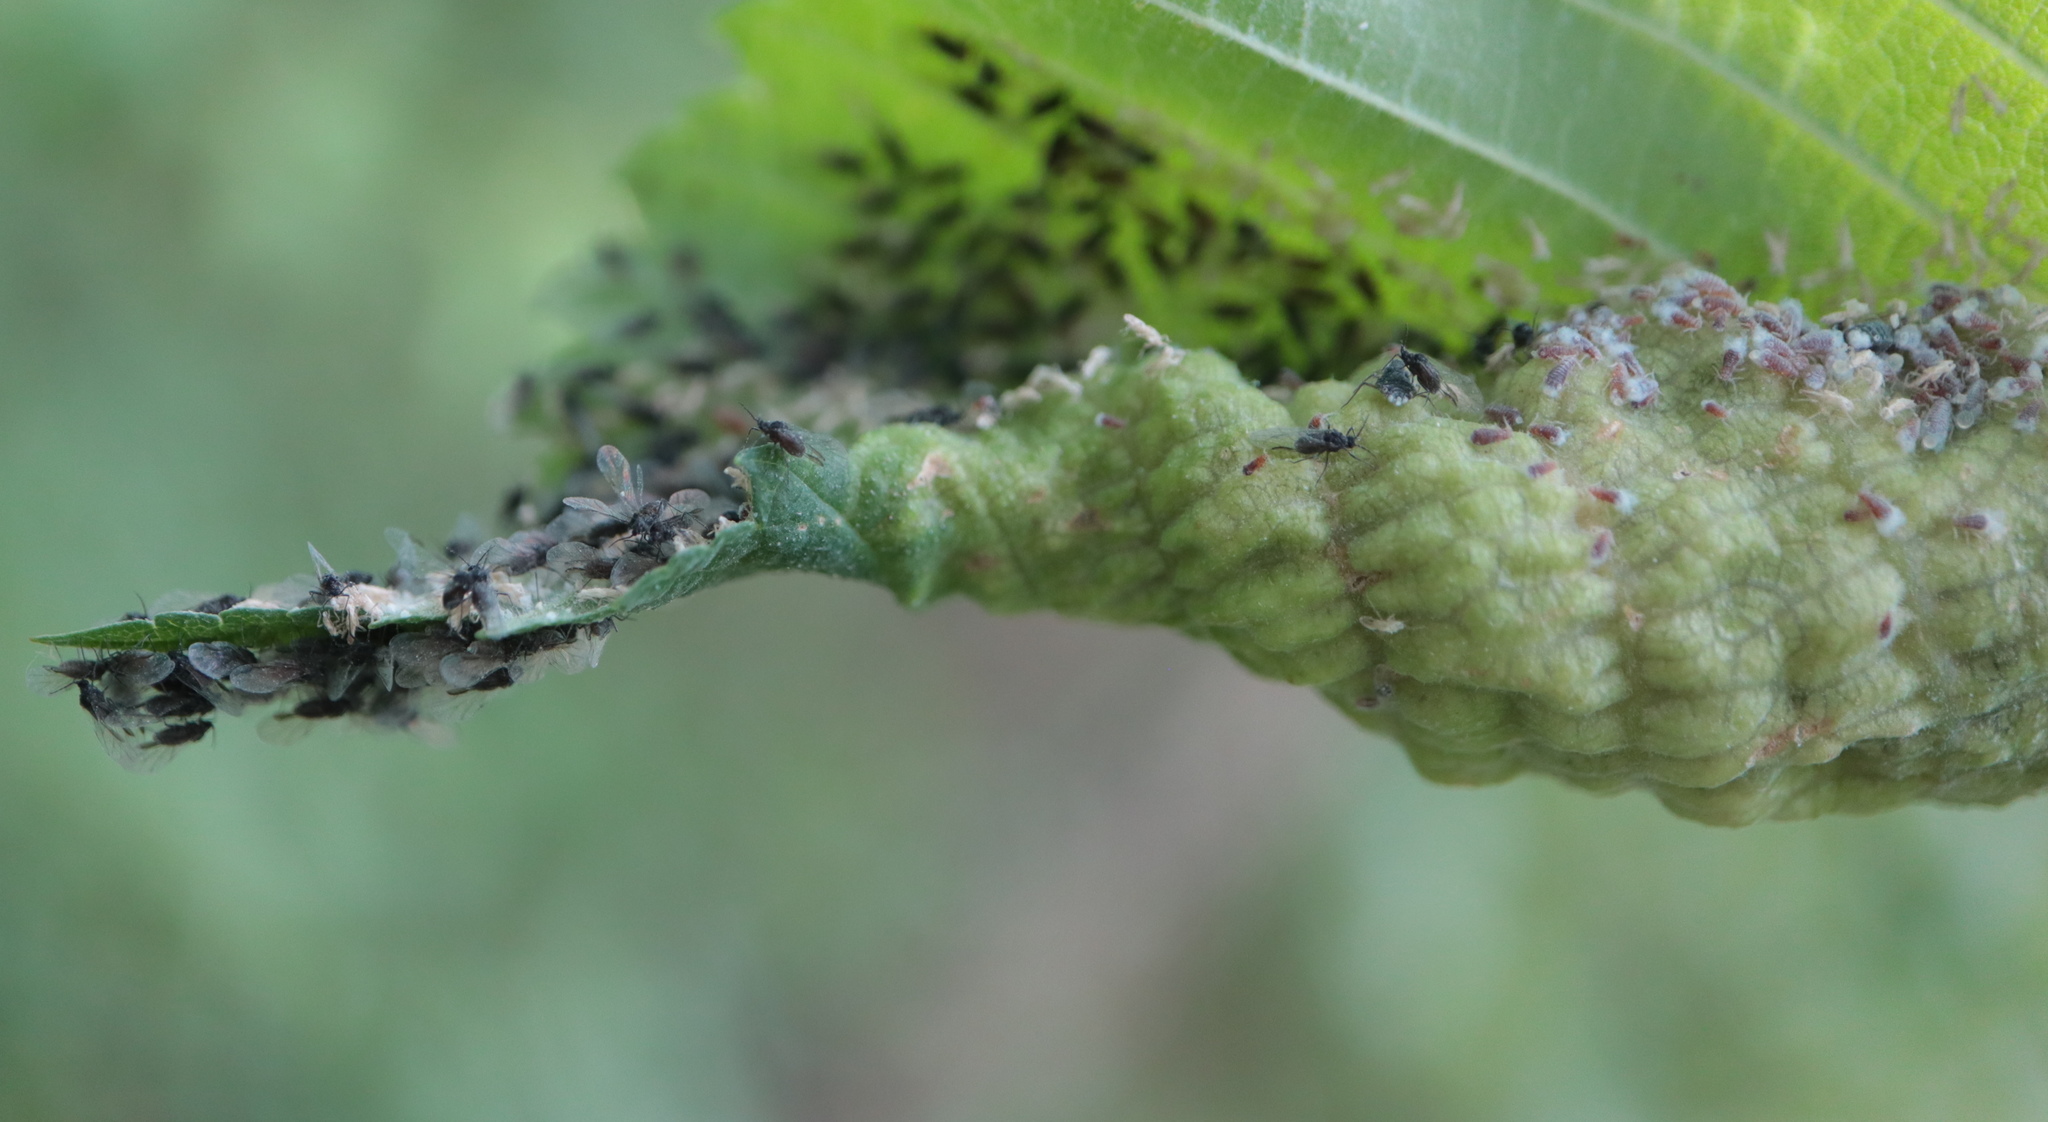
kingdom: Animalia
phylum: Arthropoda
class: Insecta
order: Hemiptera
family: Aphididae
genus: Eriosoma
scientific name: Eriosoma americanum
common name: Woolly elm aphid
